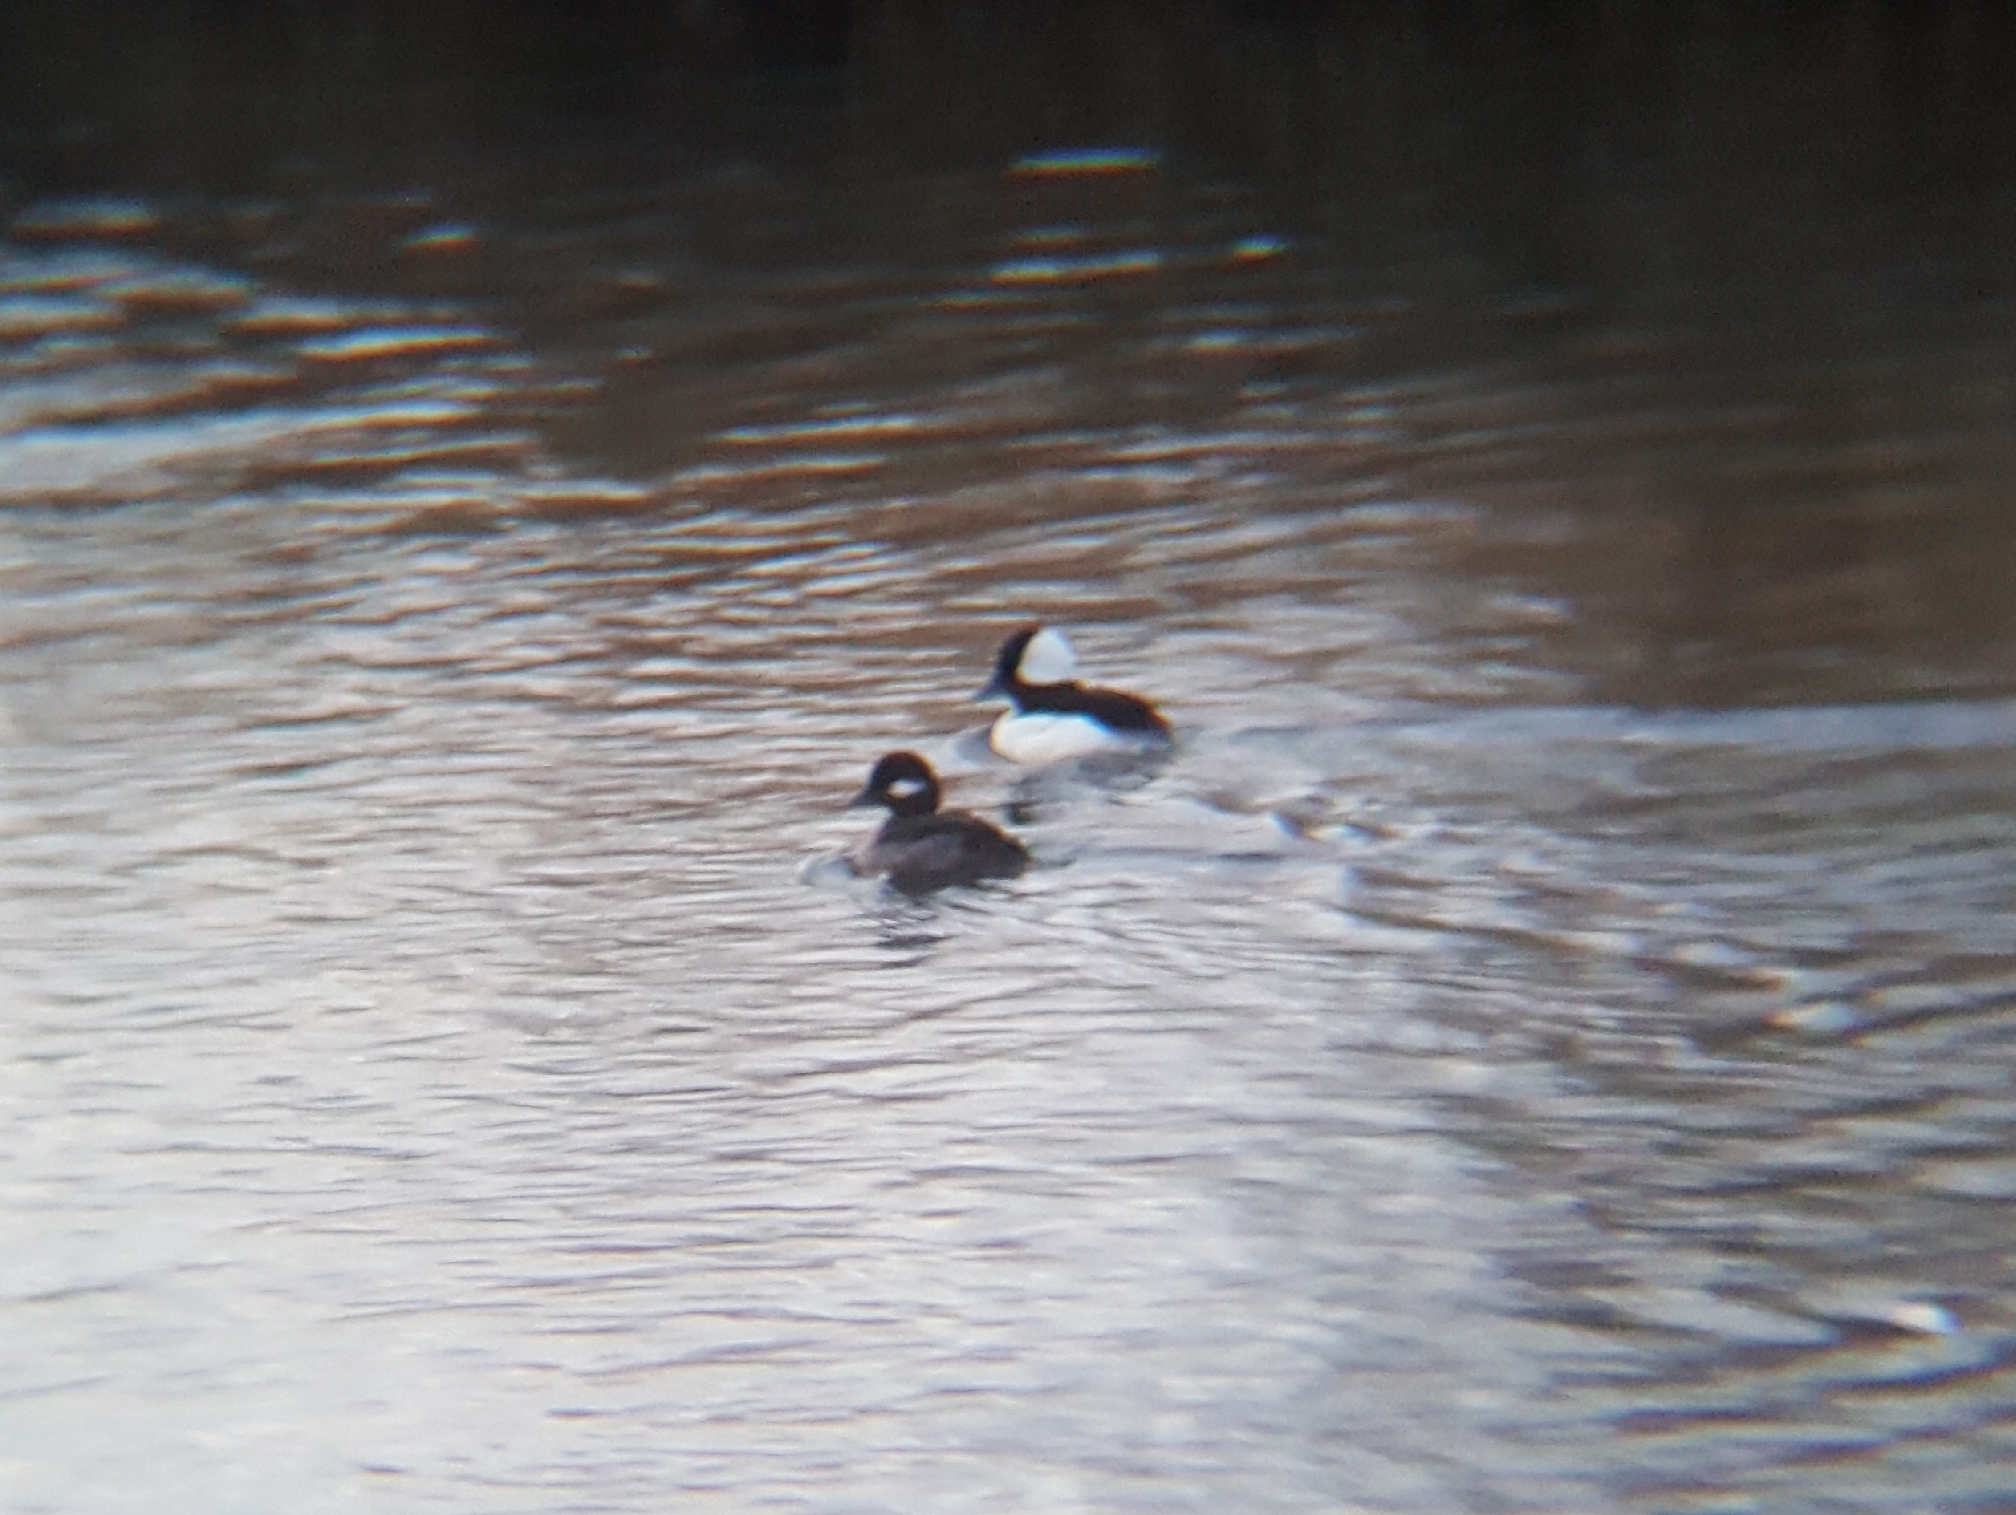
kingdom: Animalia
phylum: Chordata
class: Aves
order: Anseriformes
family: Anatidae
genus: Bucephala
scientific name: Bucephala albeola
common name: Bufflehead
